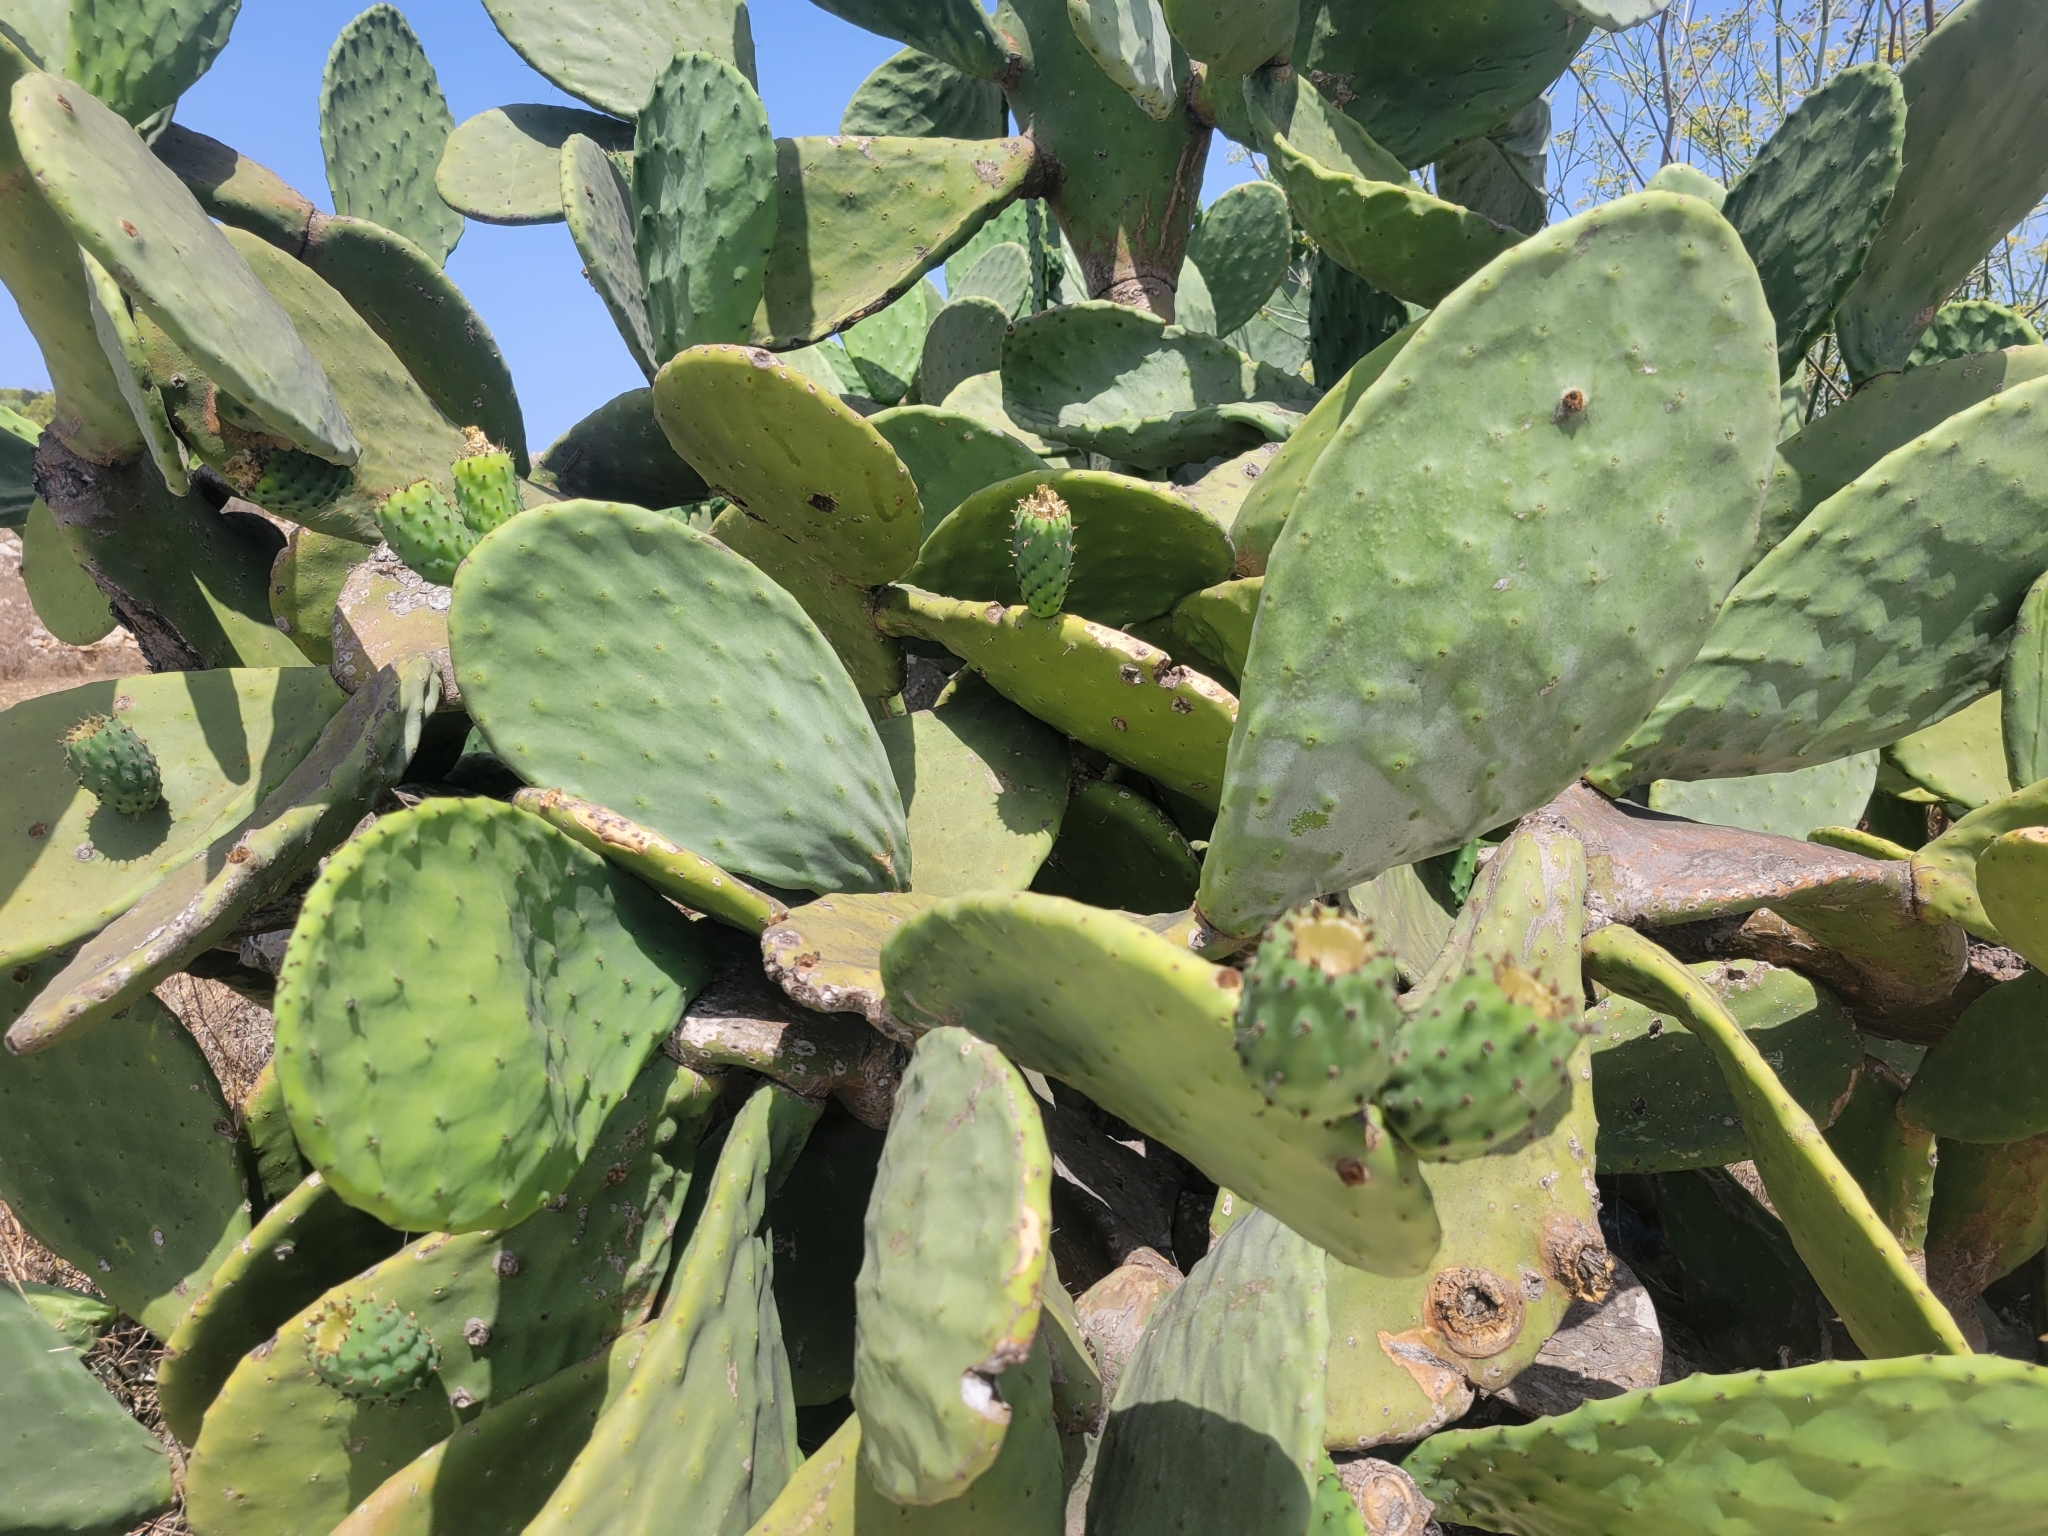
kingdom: Plantae
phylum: Tracheophyta
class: Magnoliopsida
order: Caryophyllales
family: Cactaceae
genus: Opuntia
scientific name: Opuntia ficus-indica
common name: Barbary fig
